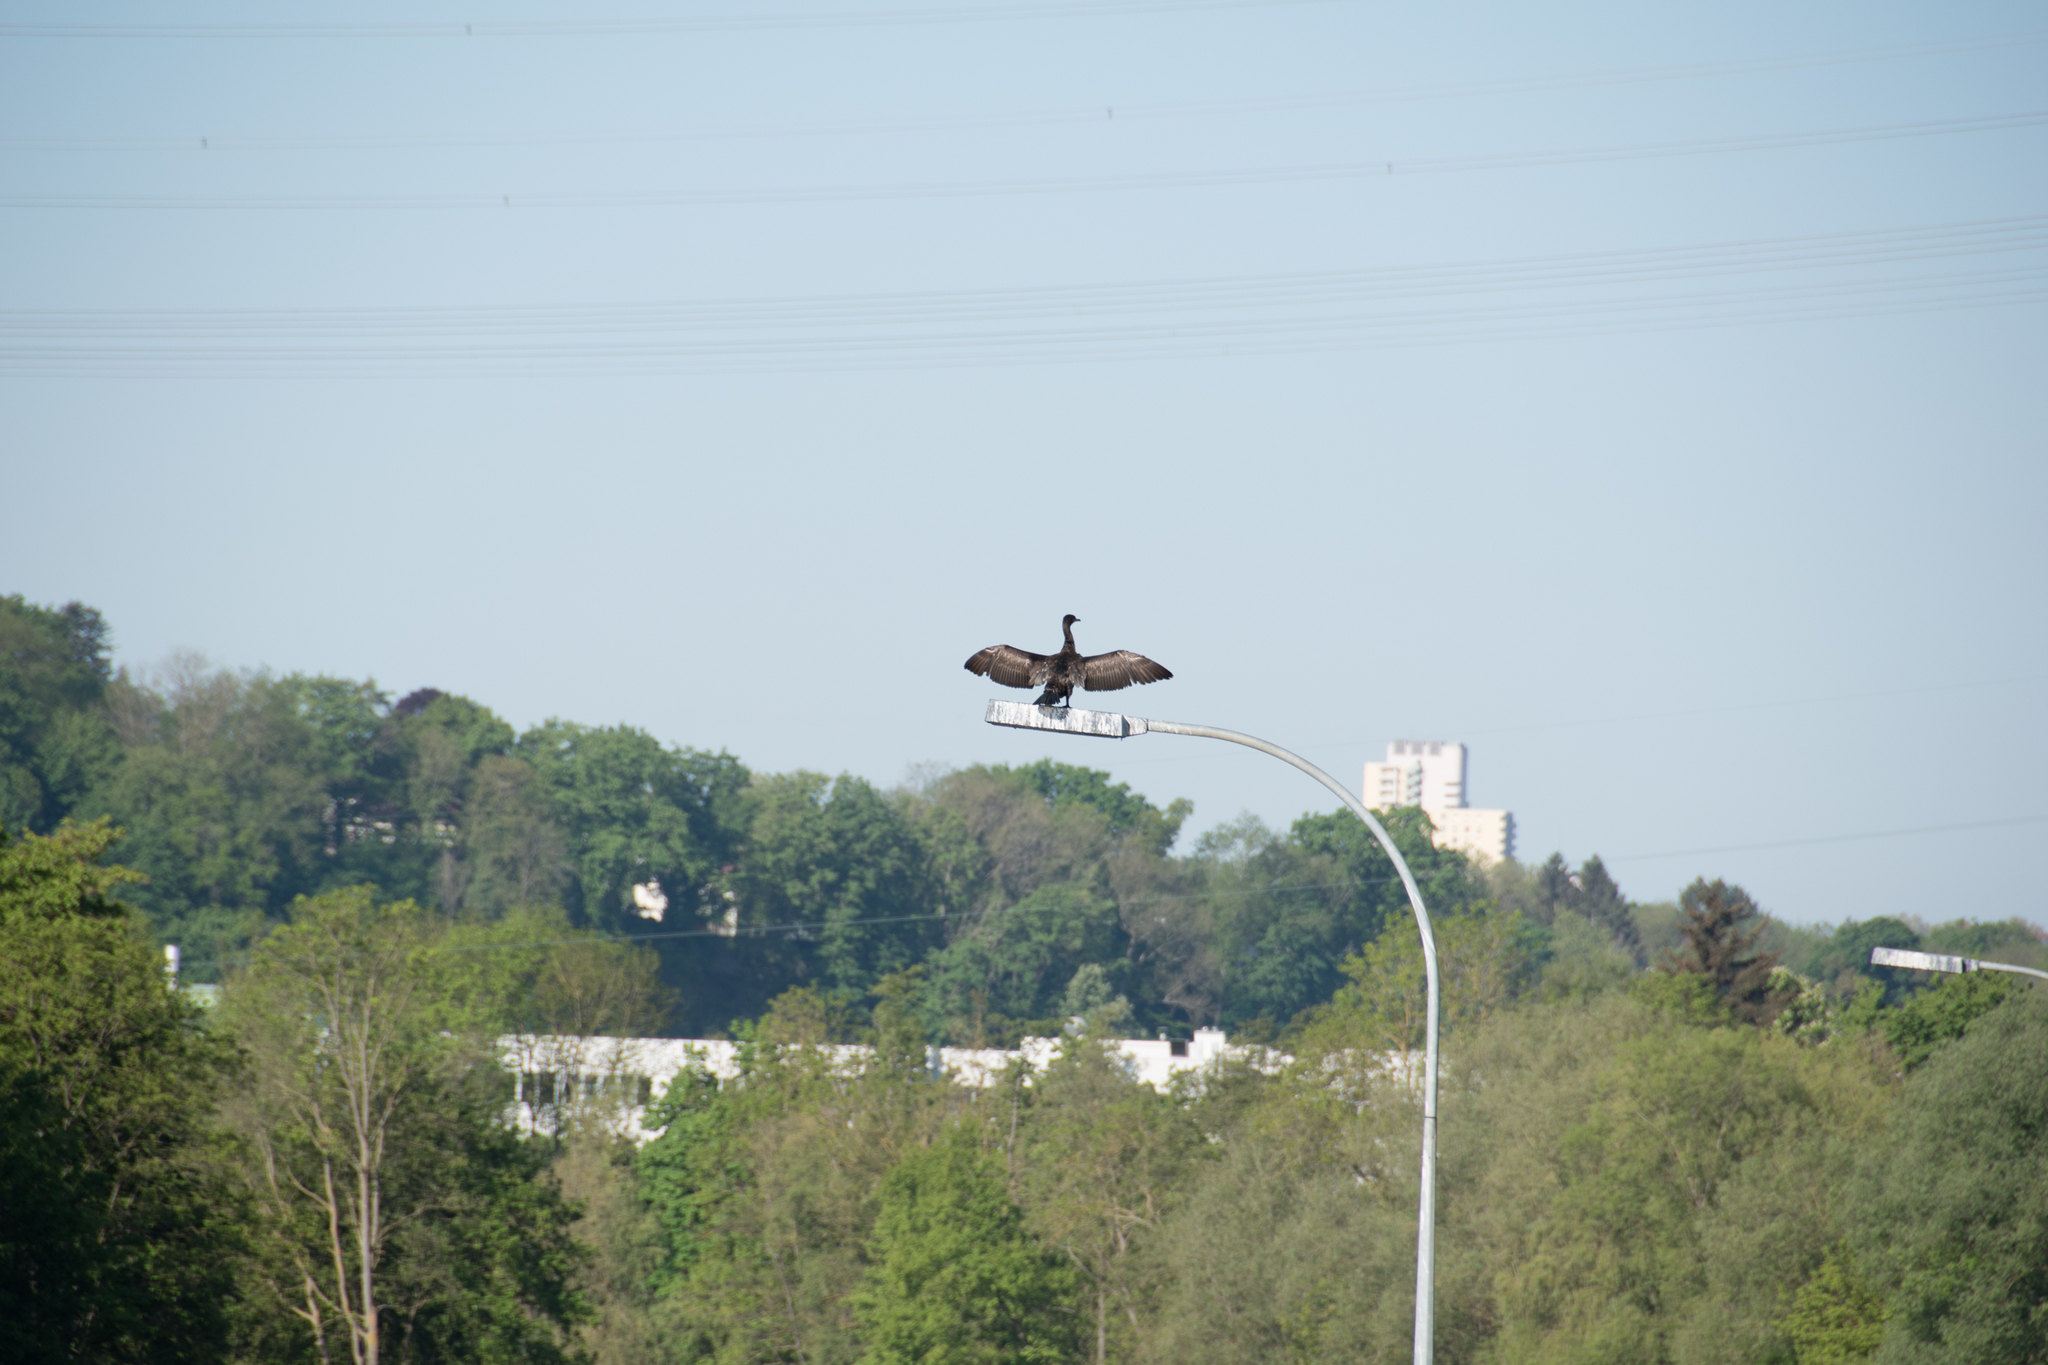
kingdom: Animalia
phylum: Chordata
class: Aves
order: Suliformes
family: Phalacrocoracidae
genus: Phalacrocorax
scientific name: Phalacrocorax carbo
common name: Great cormorant
